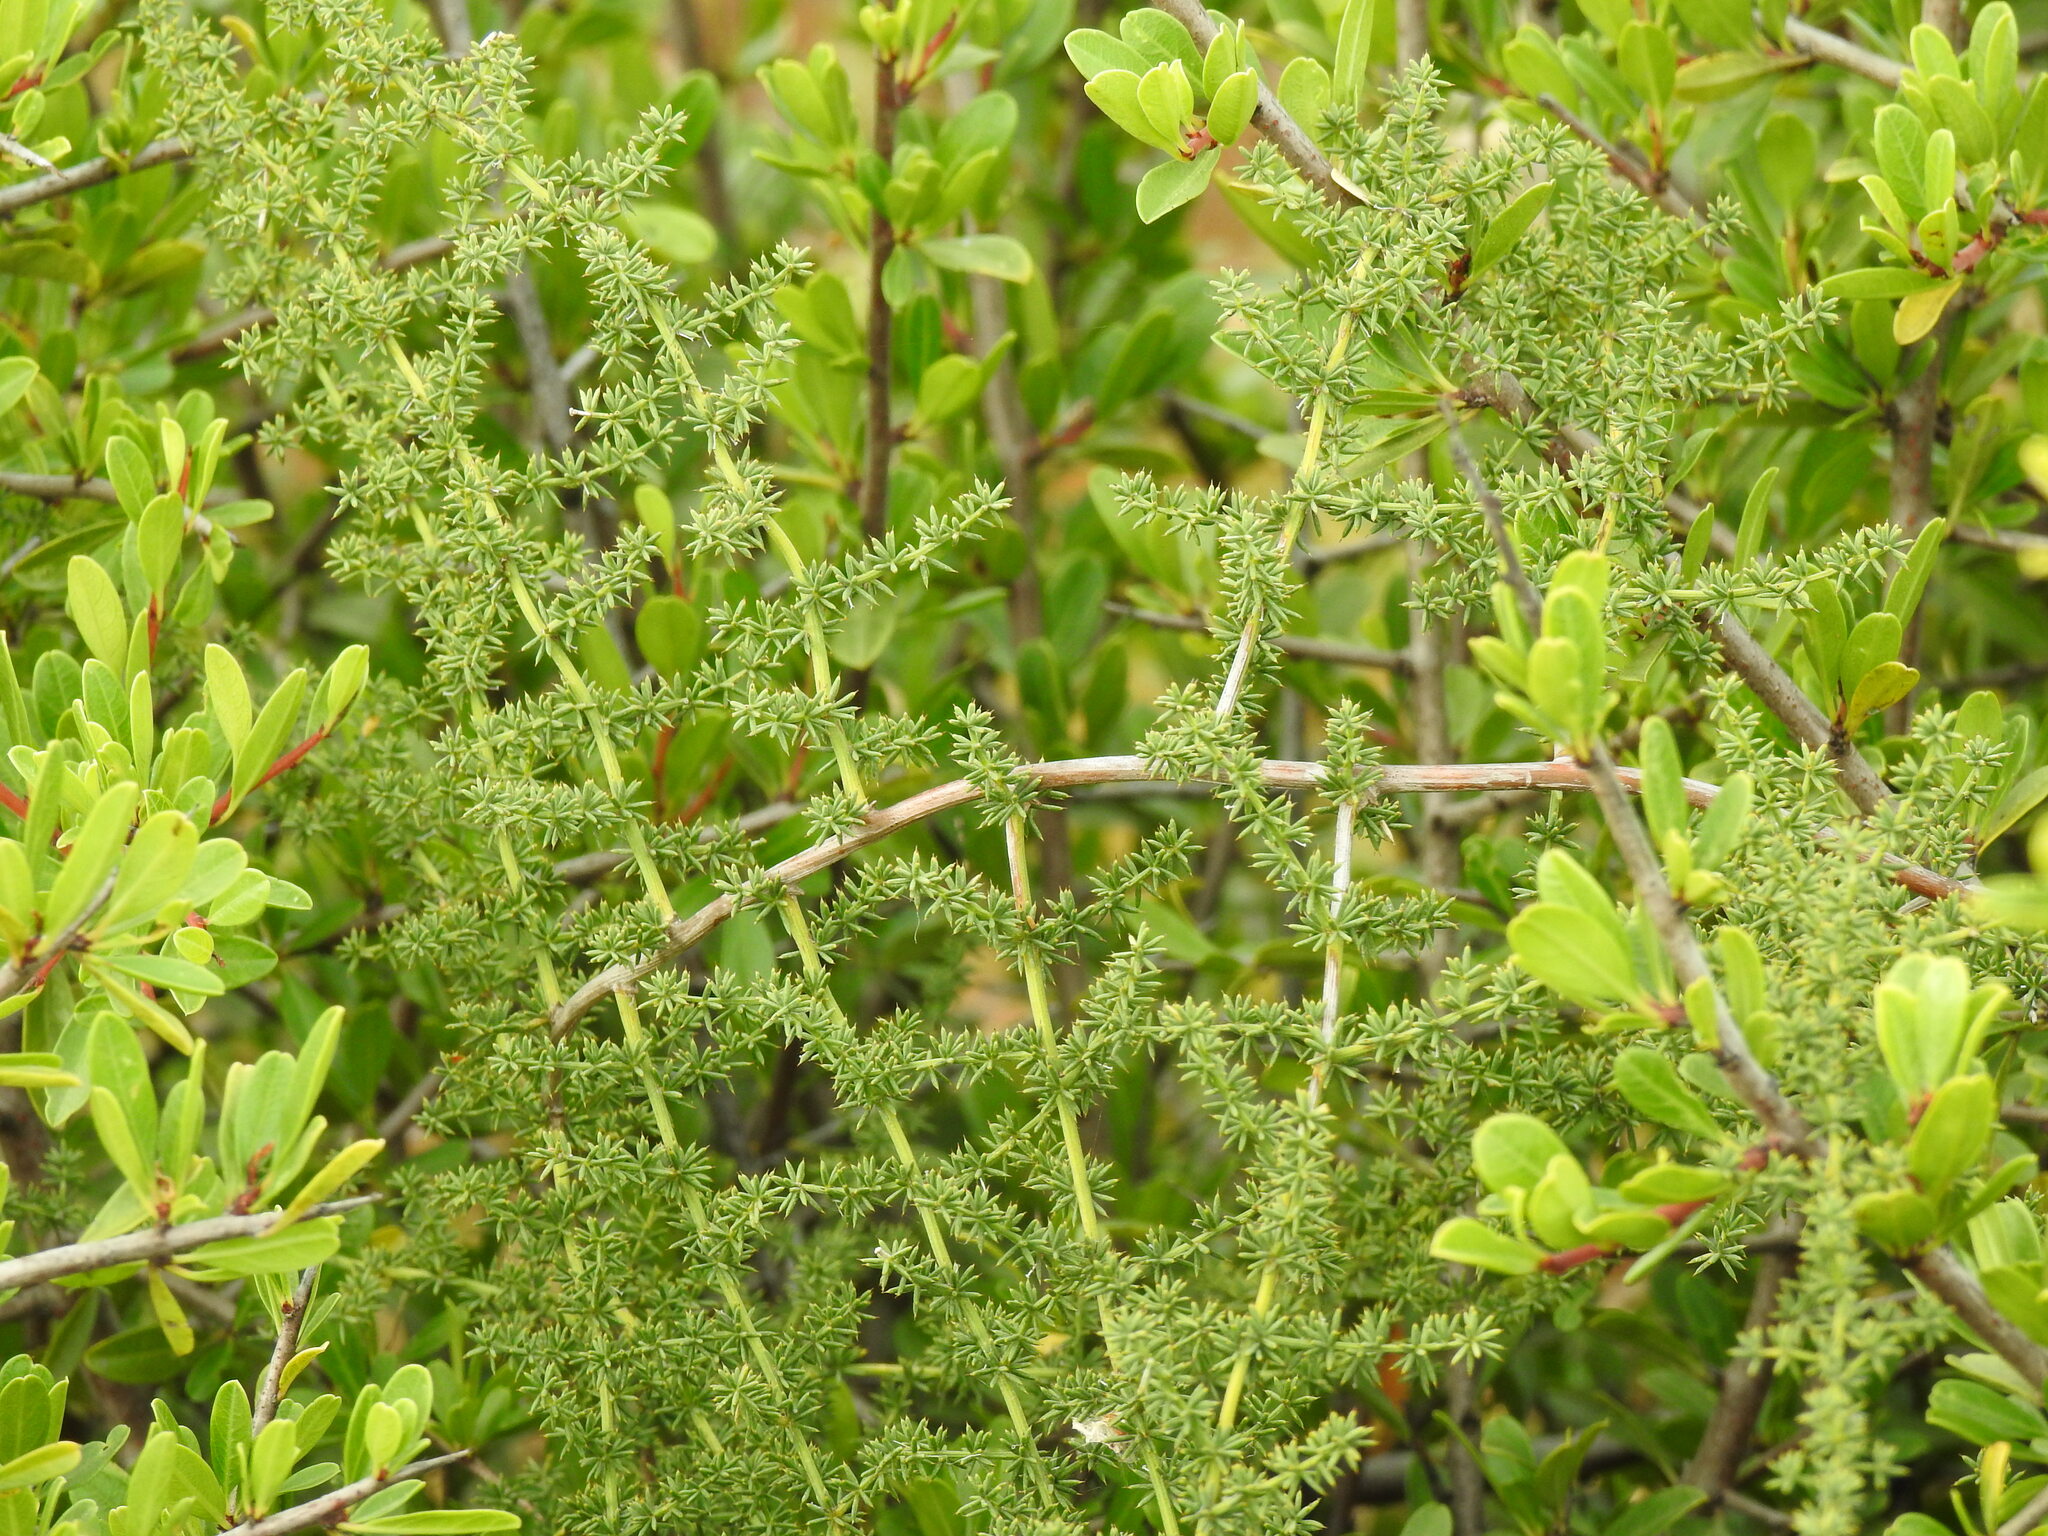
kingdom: Plantae
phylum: Tracheophyta
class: Liliopsida
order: Asparagales
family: Asparagaceae
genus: Asparagus
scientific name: Asparagus acutifolius
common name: Wild asparagus
